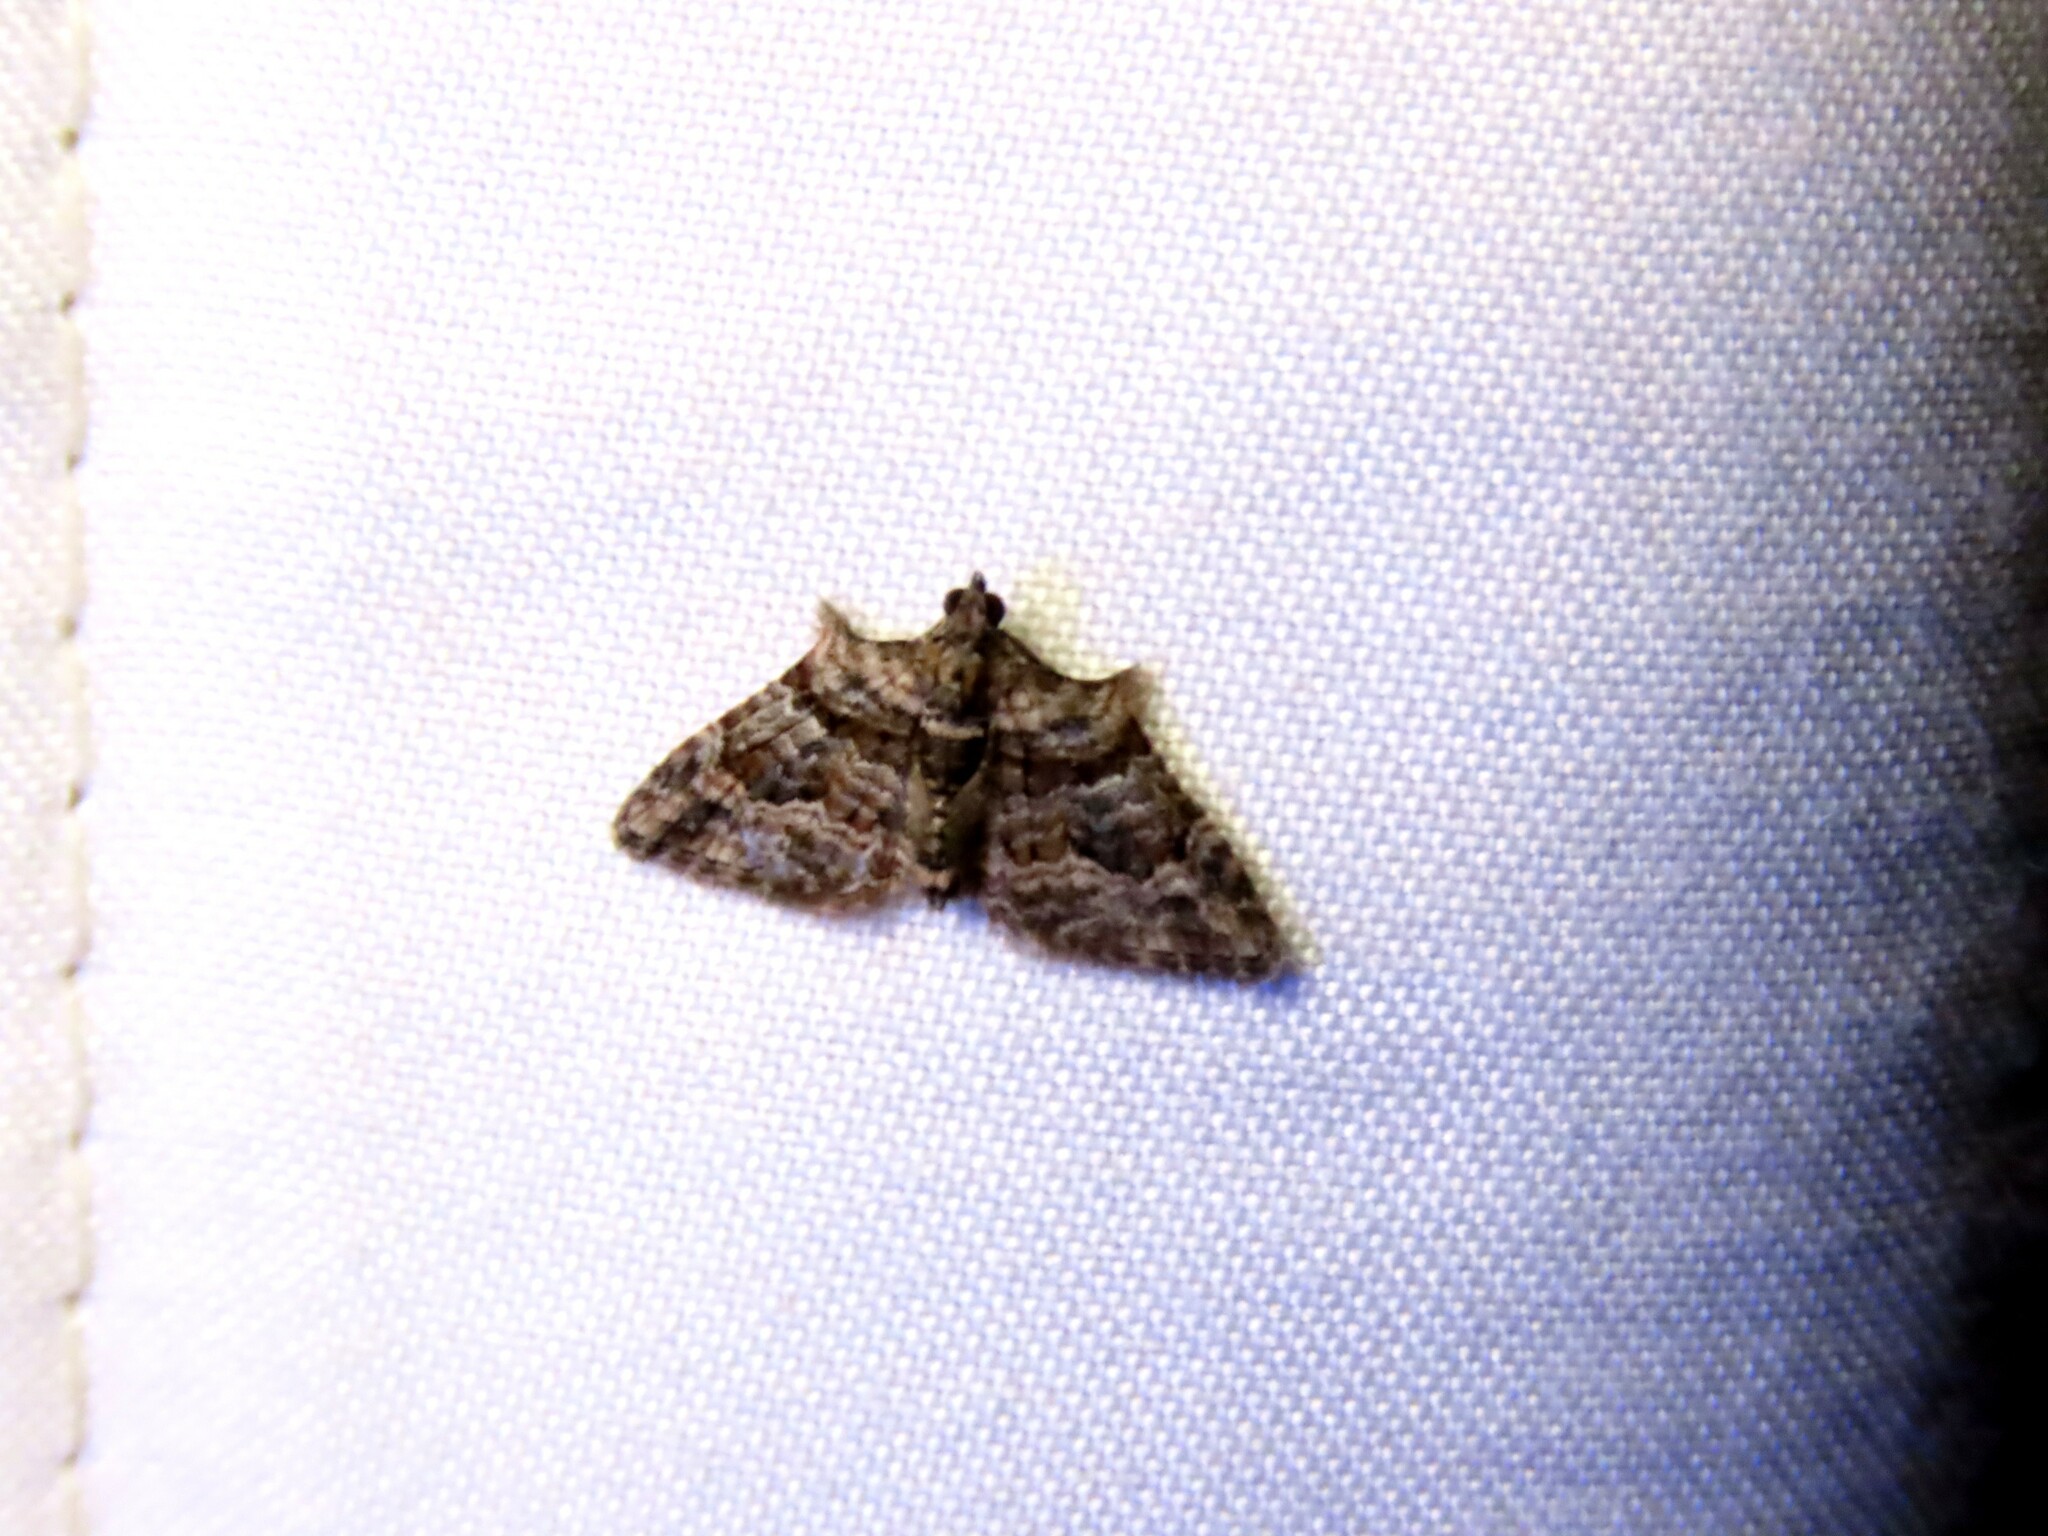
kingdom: Animalia
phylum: Arthropoda
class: Insecta
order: Lepidoptera
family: Geometridae
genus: Phrissogonus
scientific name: Phrissogonus laticostata
